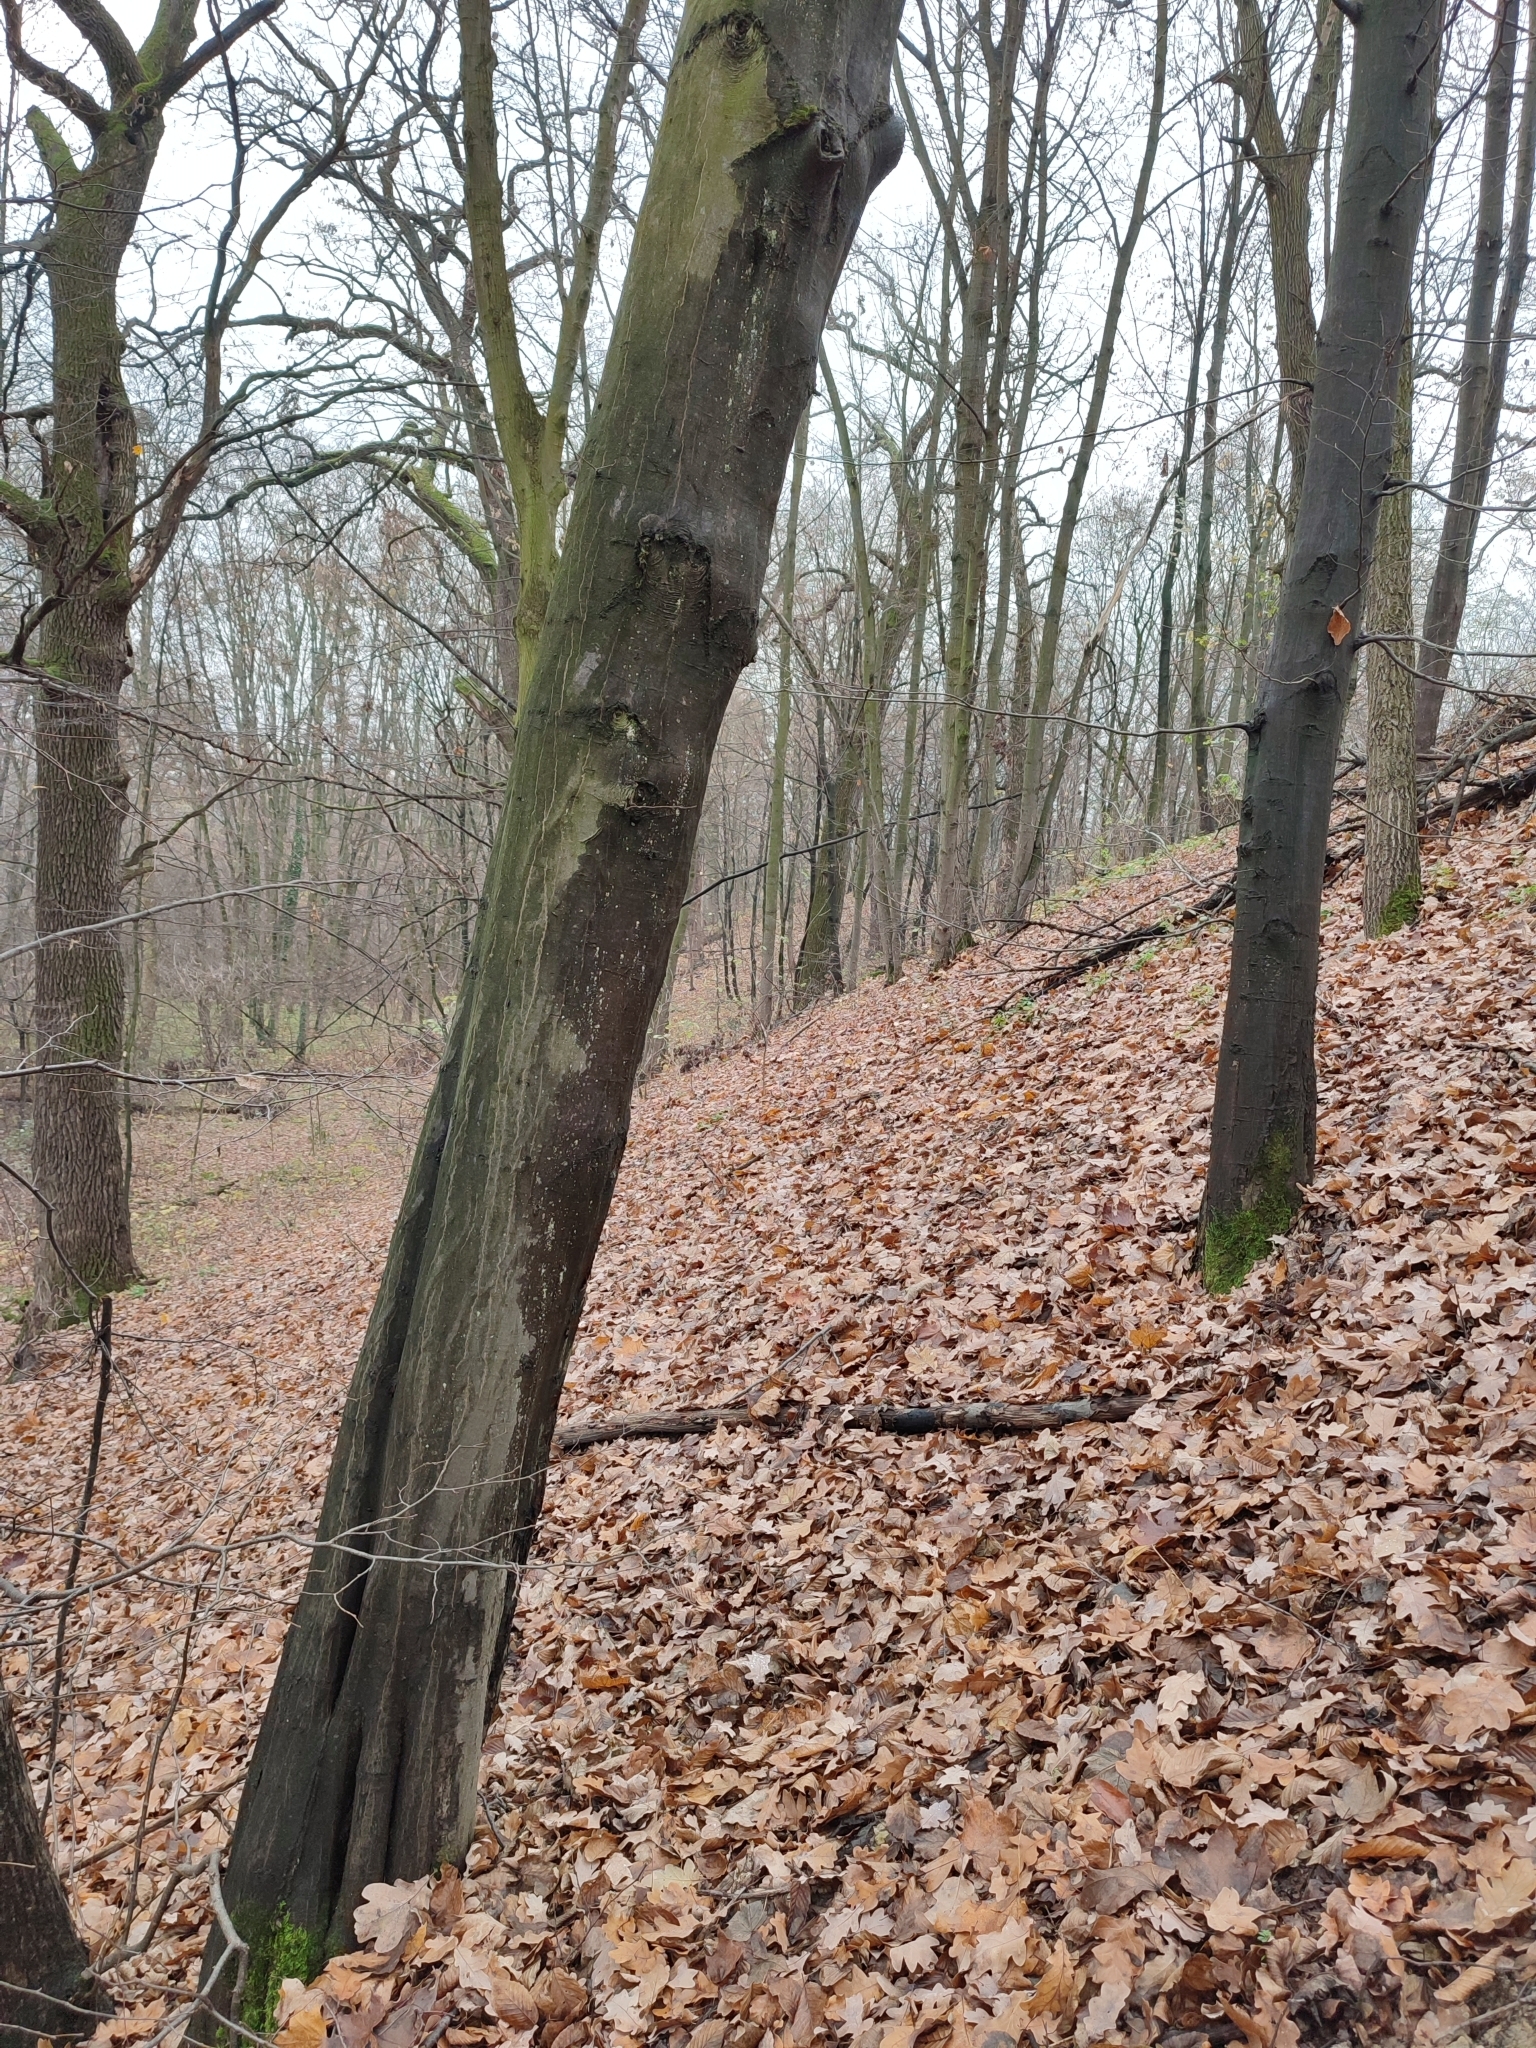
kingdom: Plantae
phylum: Tracheophyta
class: Magnoliopsida
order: Fagales
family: Betulaceae
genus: Carpinus
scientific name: Carpinus betulus
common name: Hornbeam
